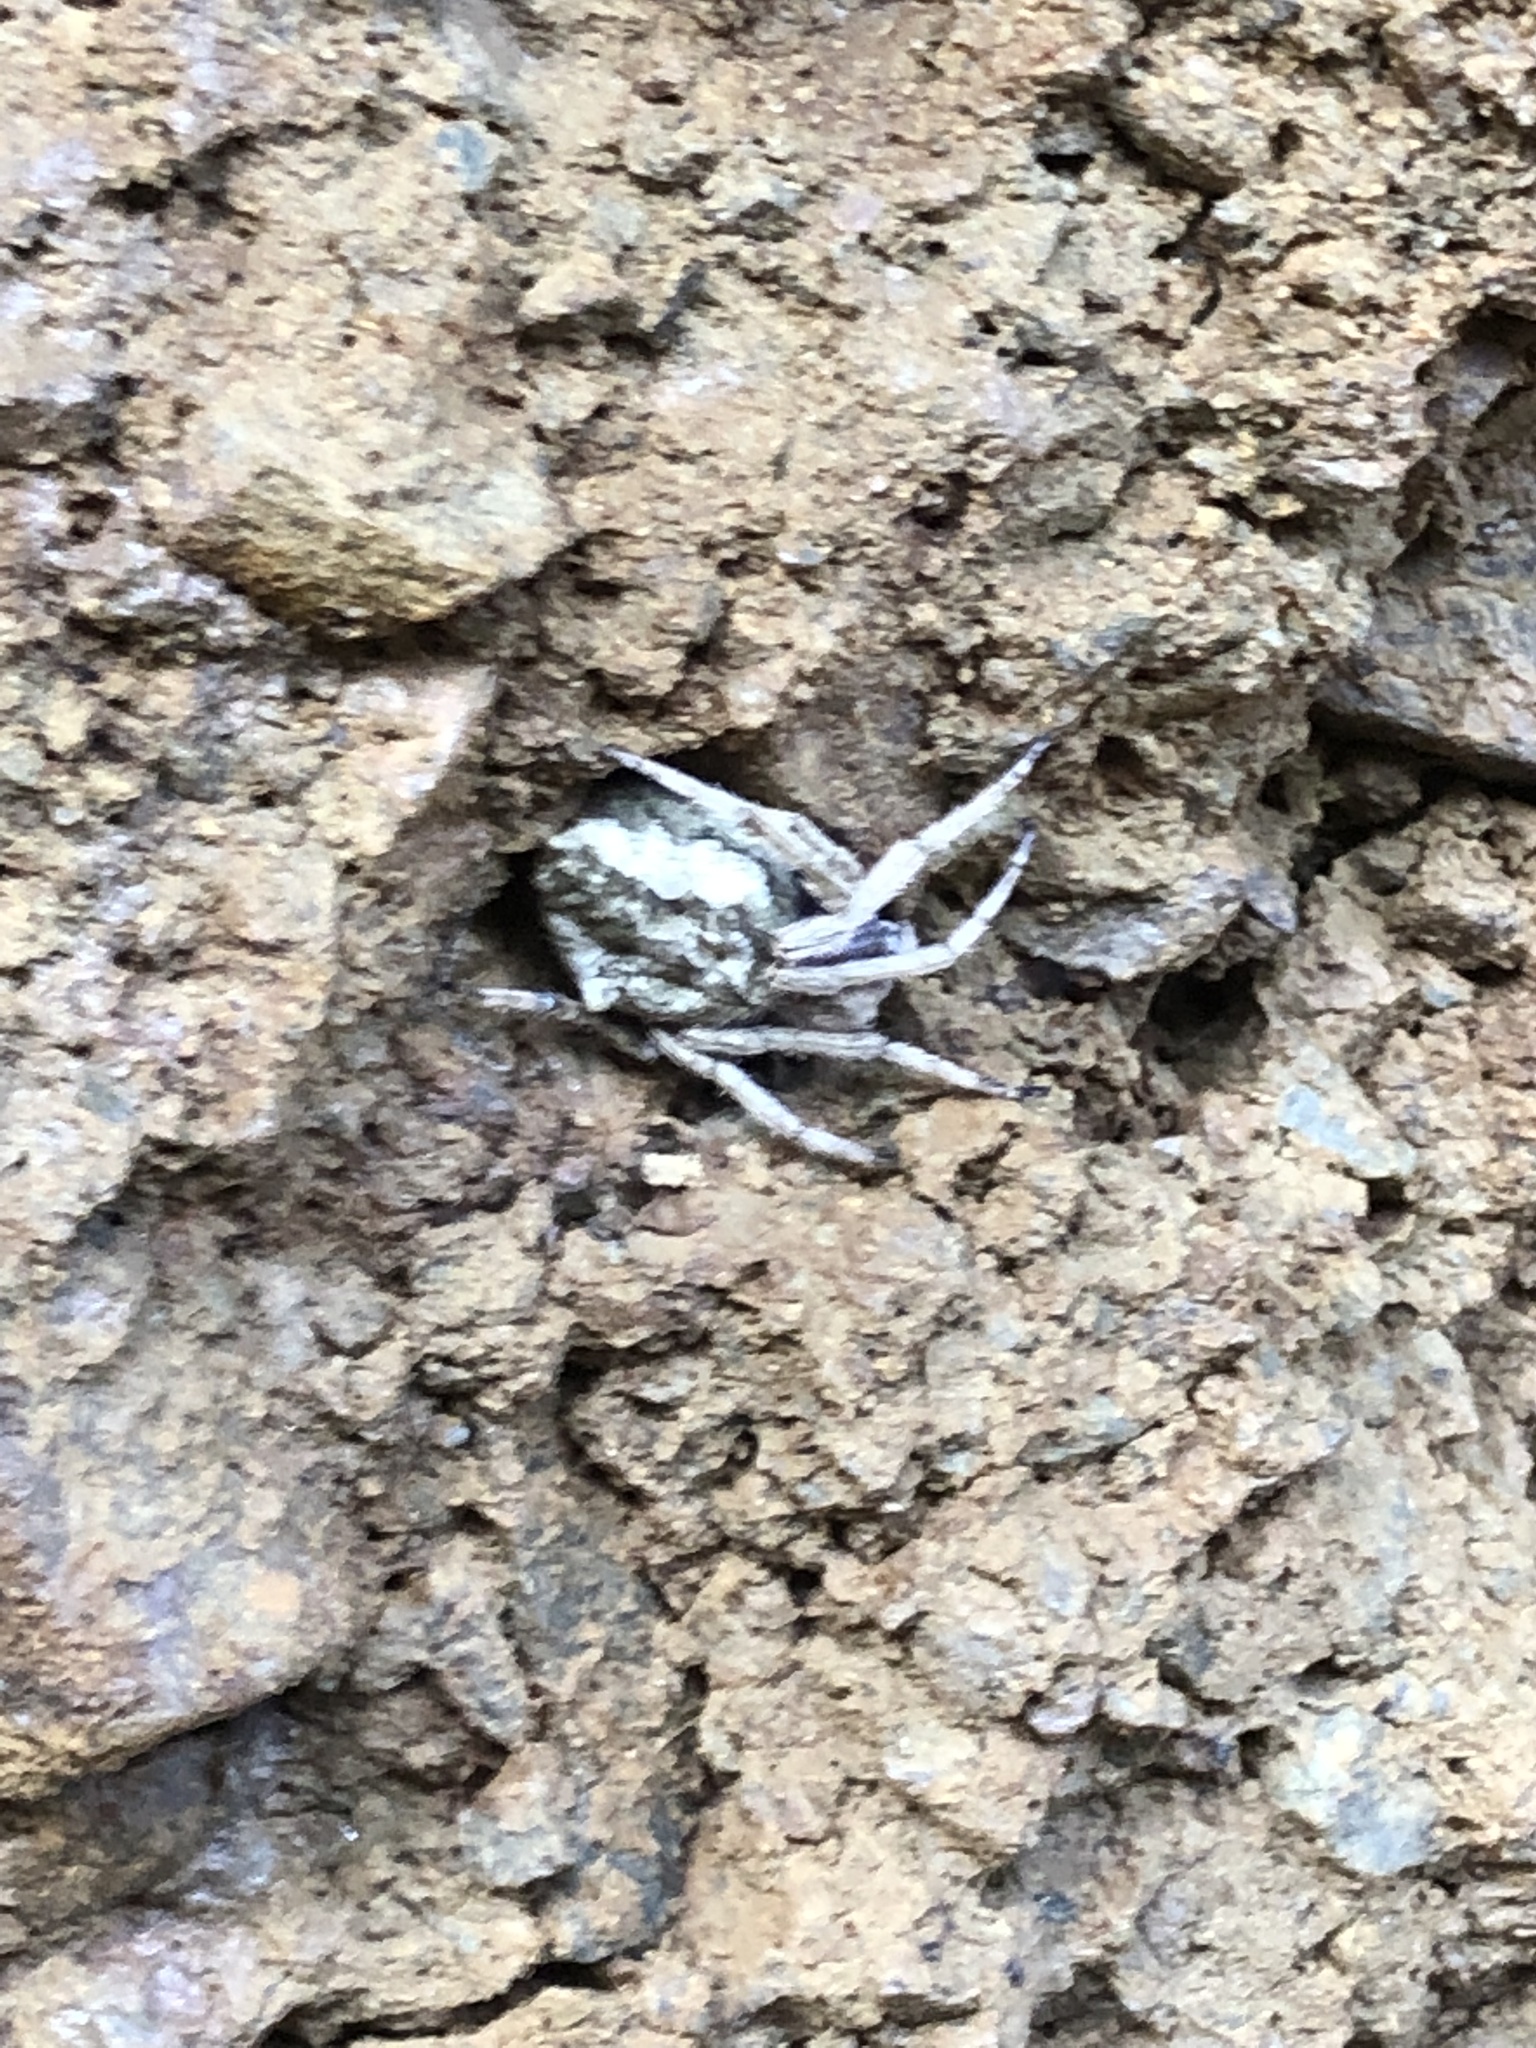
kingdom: Animalia
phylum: Arthropoda
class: Arachnida
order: Araneae
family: Araneidae
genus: Eriophora
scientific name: Eriophora pustulosa
